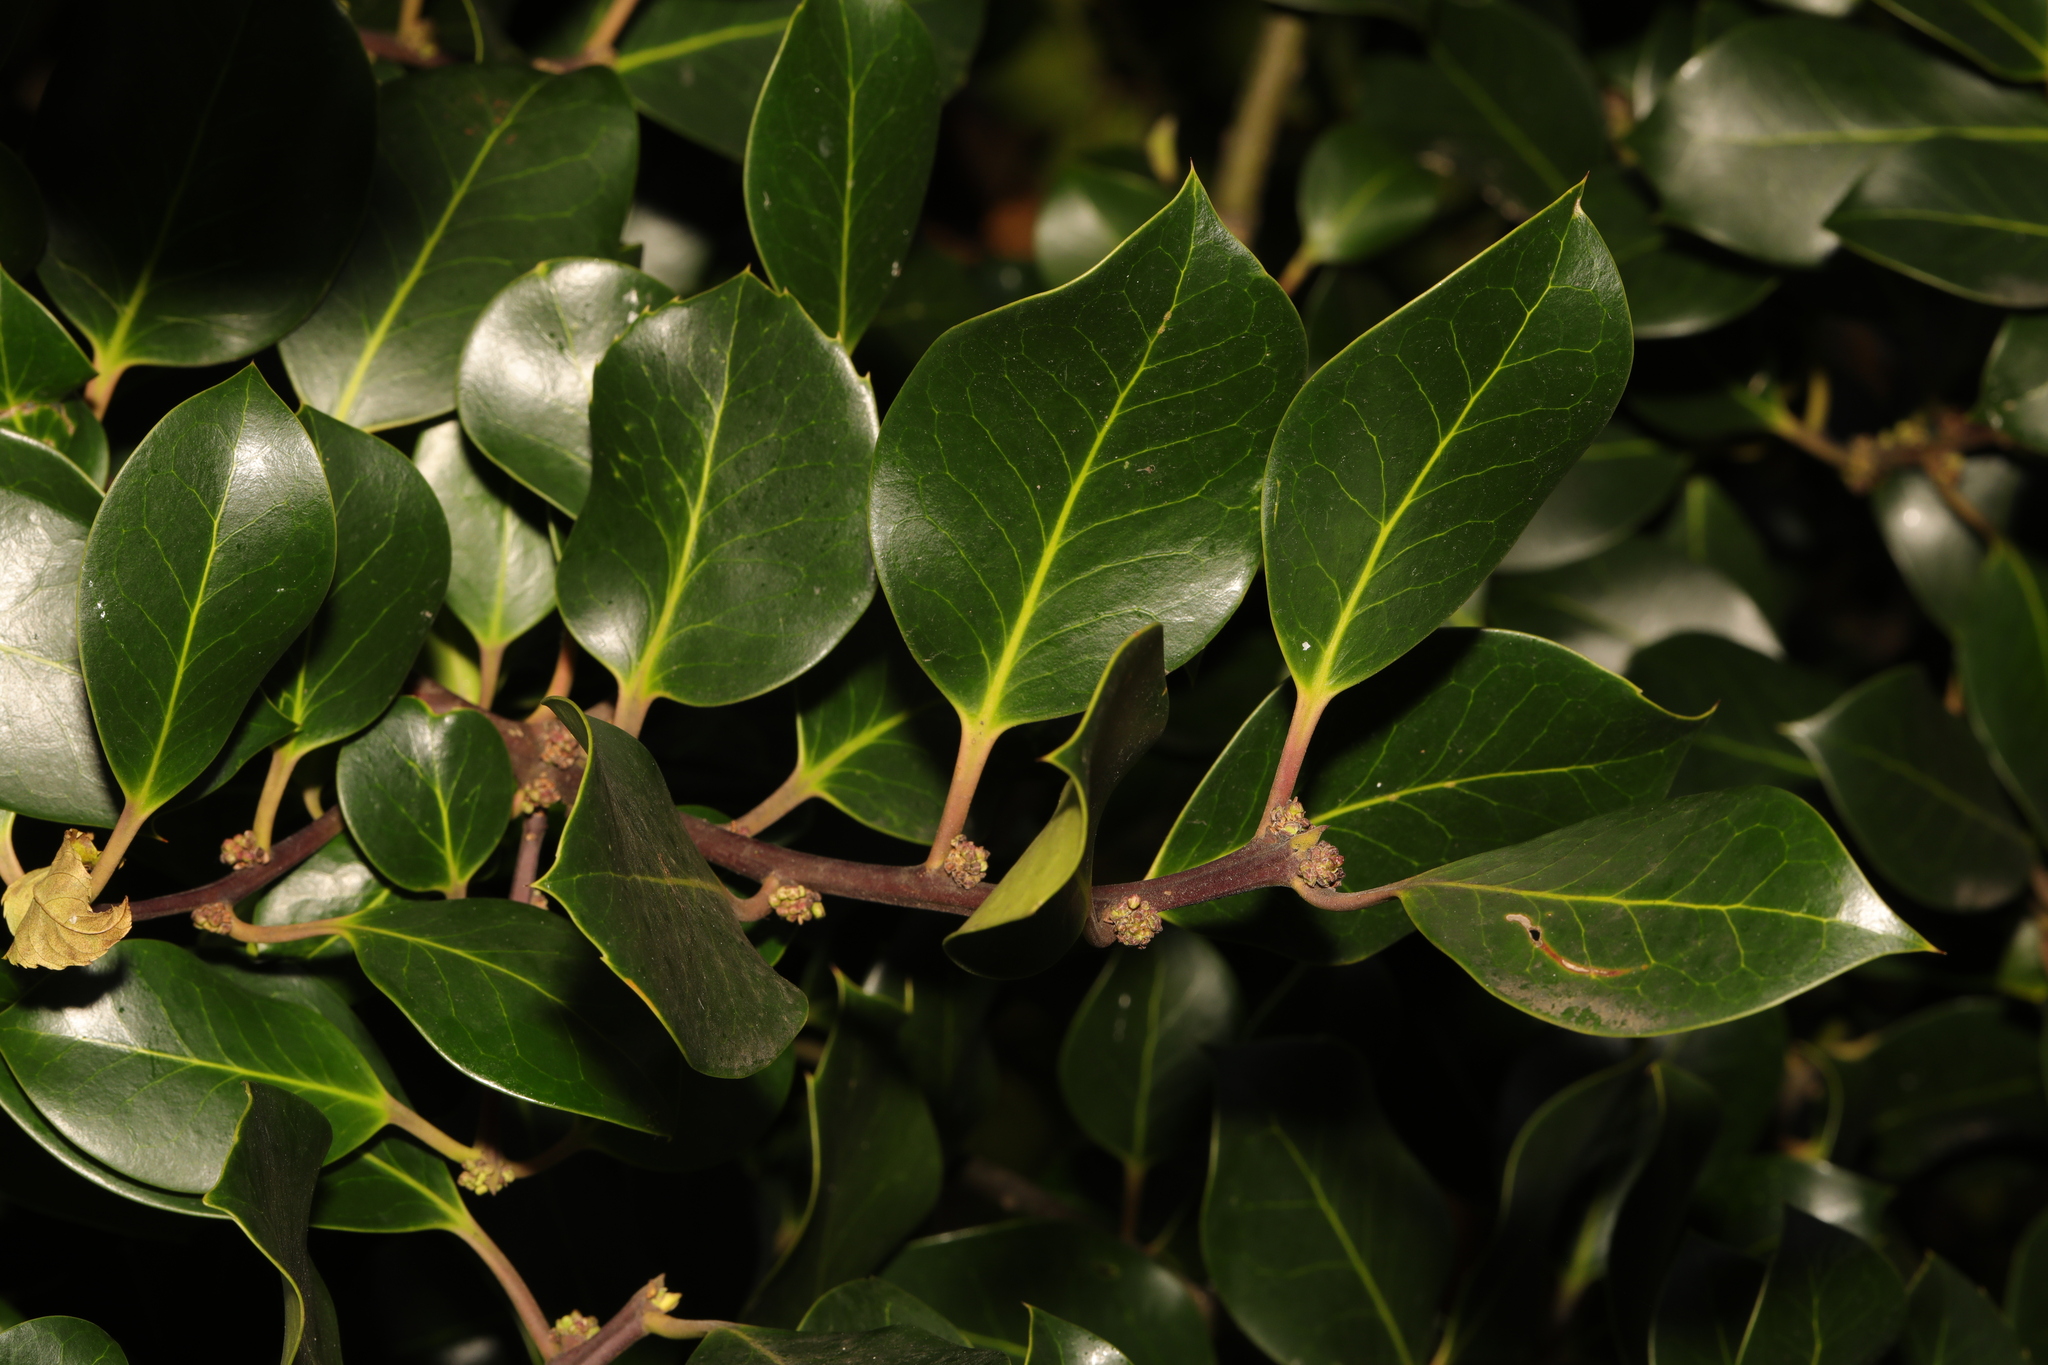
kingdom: Plantae
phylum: Tracheophyta
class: Magnoliopsida
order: Aquifoliales
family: Aquifoliaceae
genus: Ilex
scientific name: Ilex aquifolium
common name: English holly
